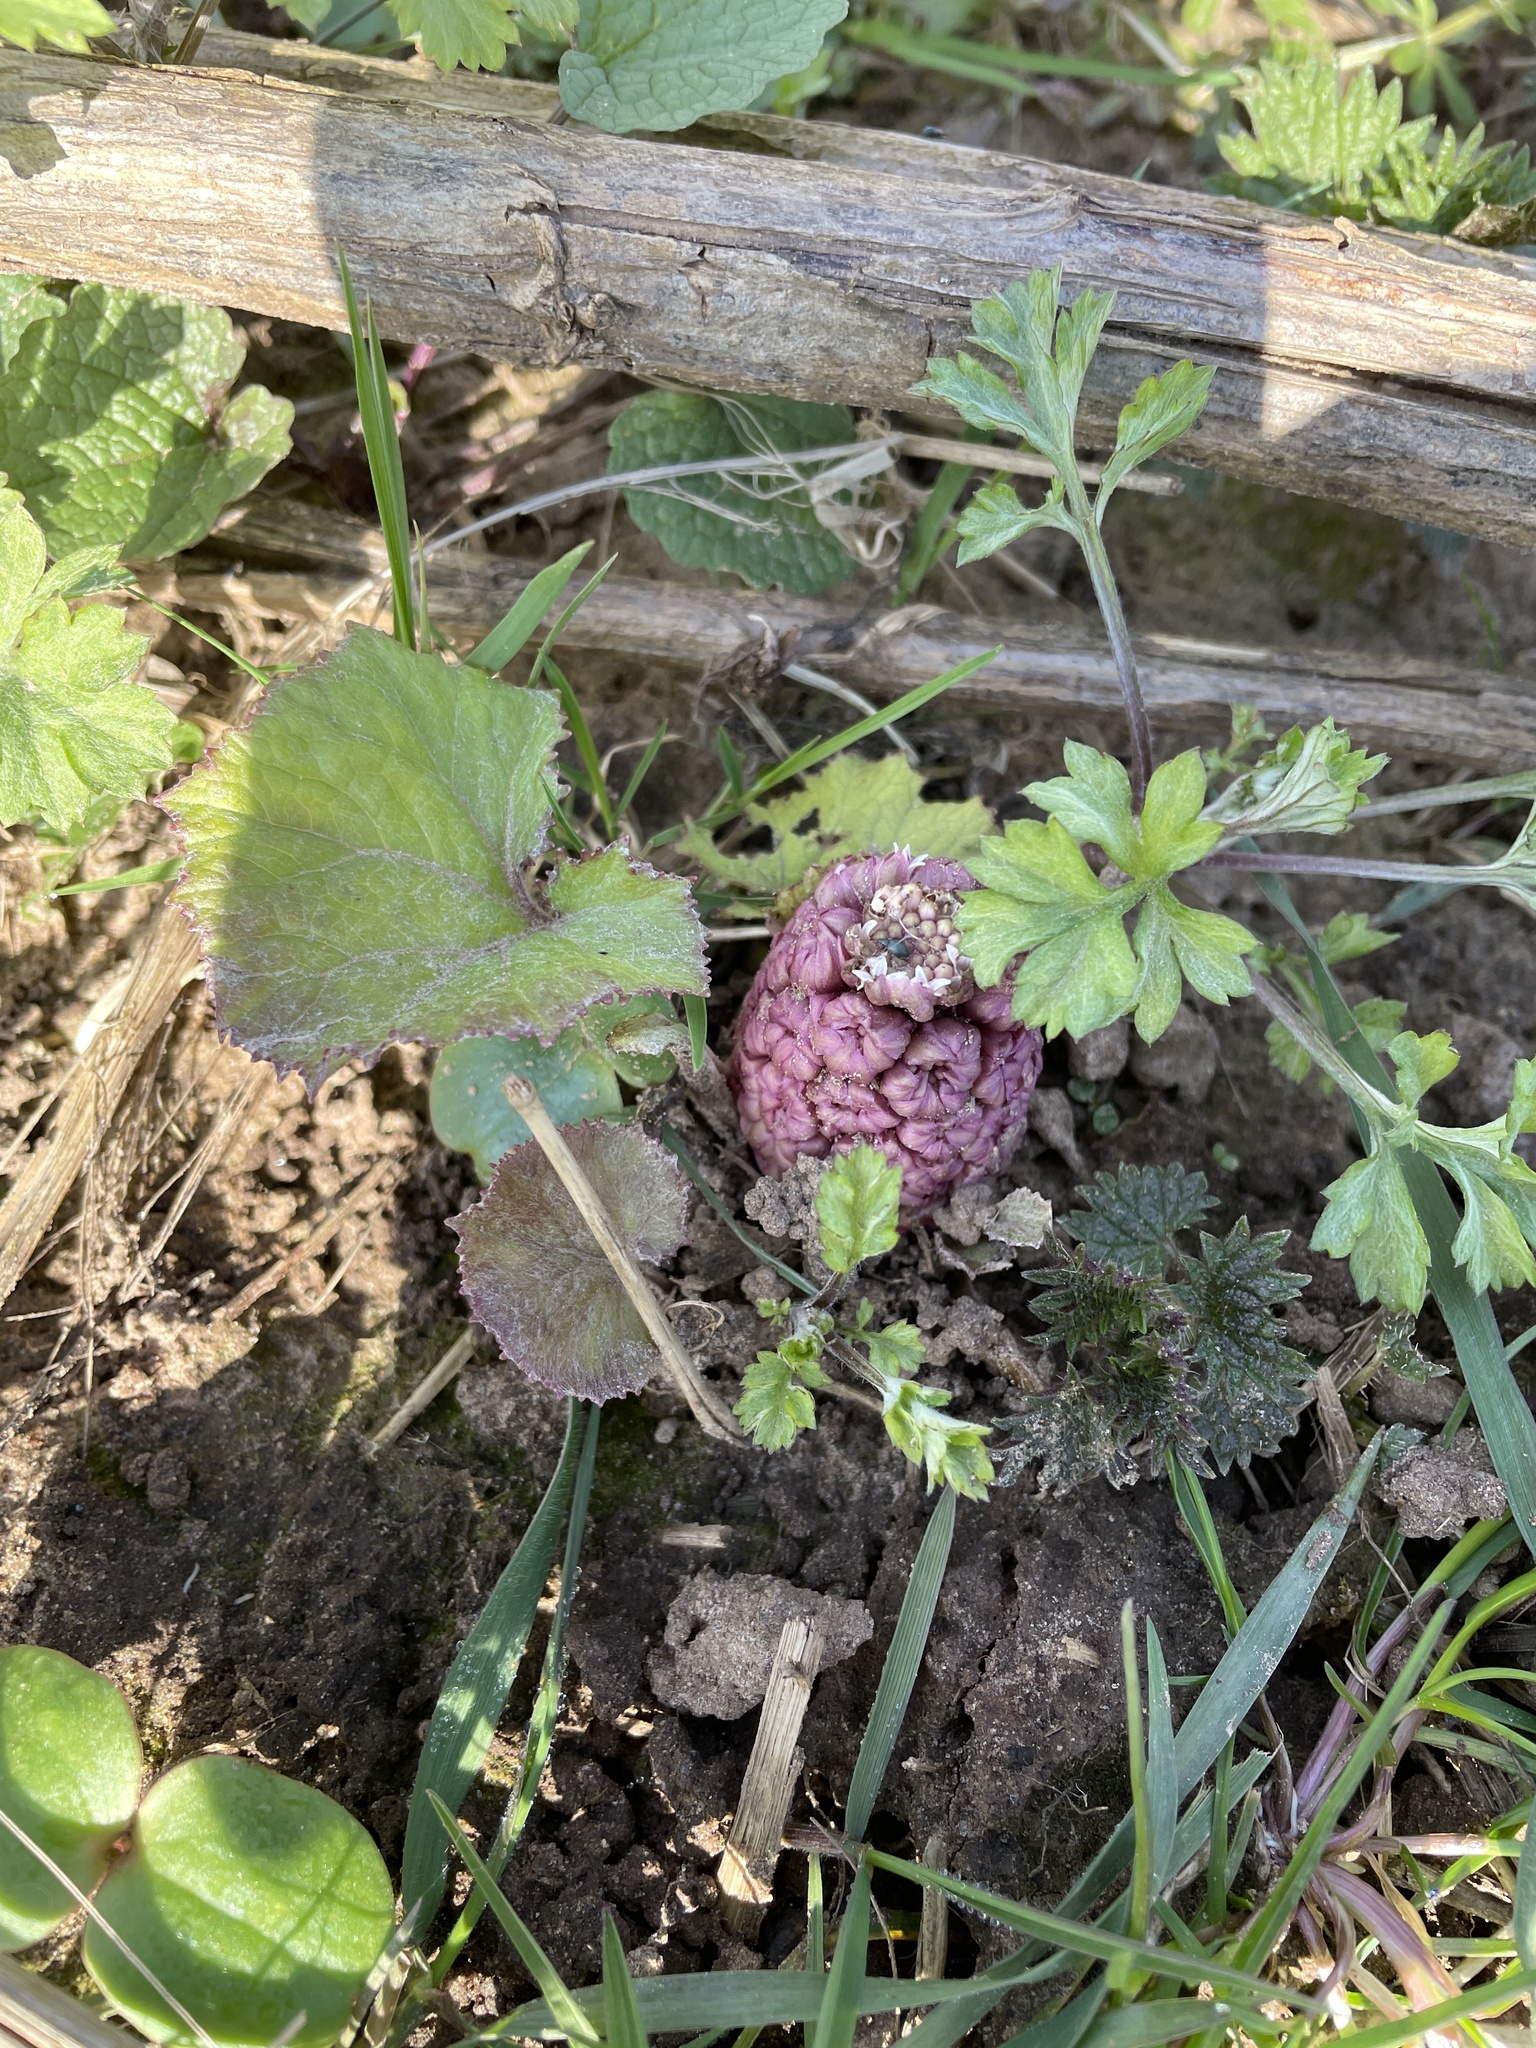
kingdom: Plantae
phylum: Tracheophyta
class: Magnoliopsida
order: Asterales
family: Asteraceae
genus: Petasites
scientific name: Petasites hybridus
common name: Butterbur
